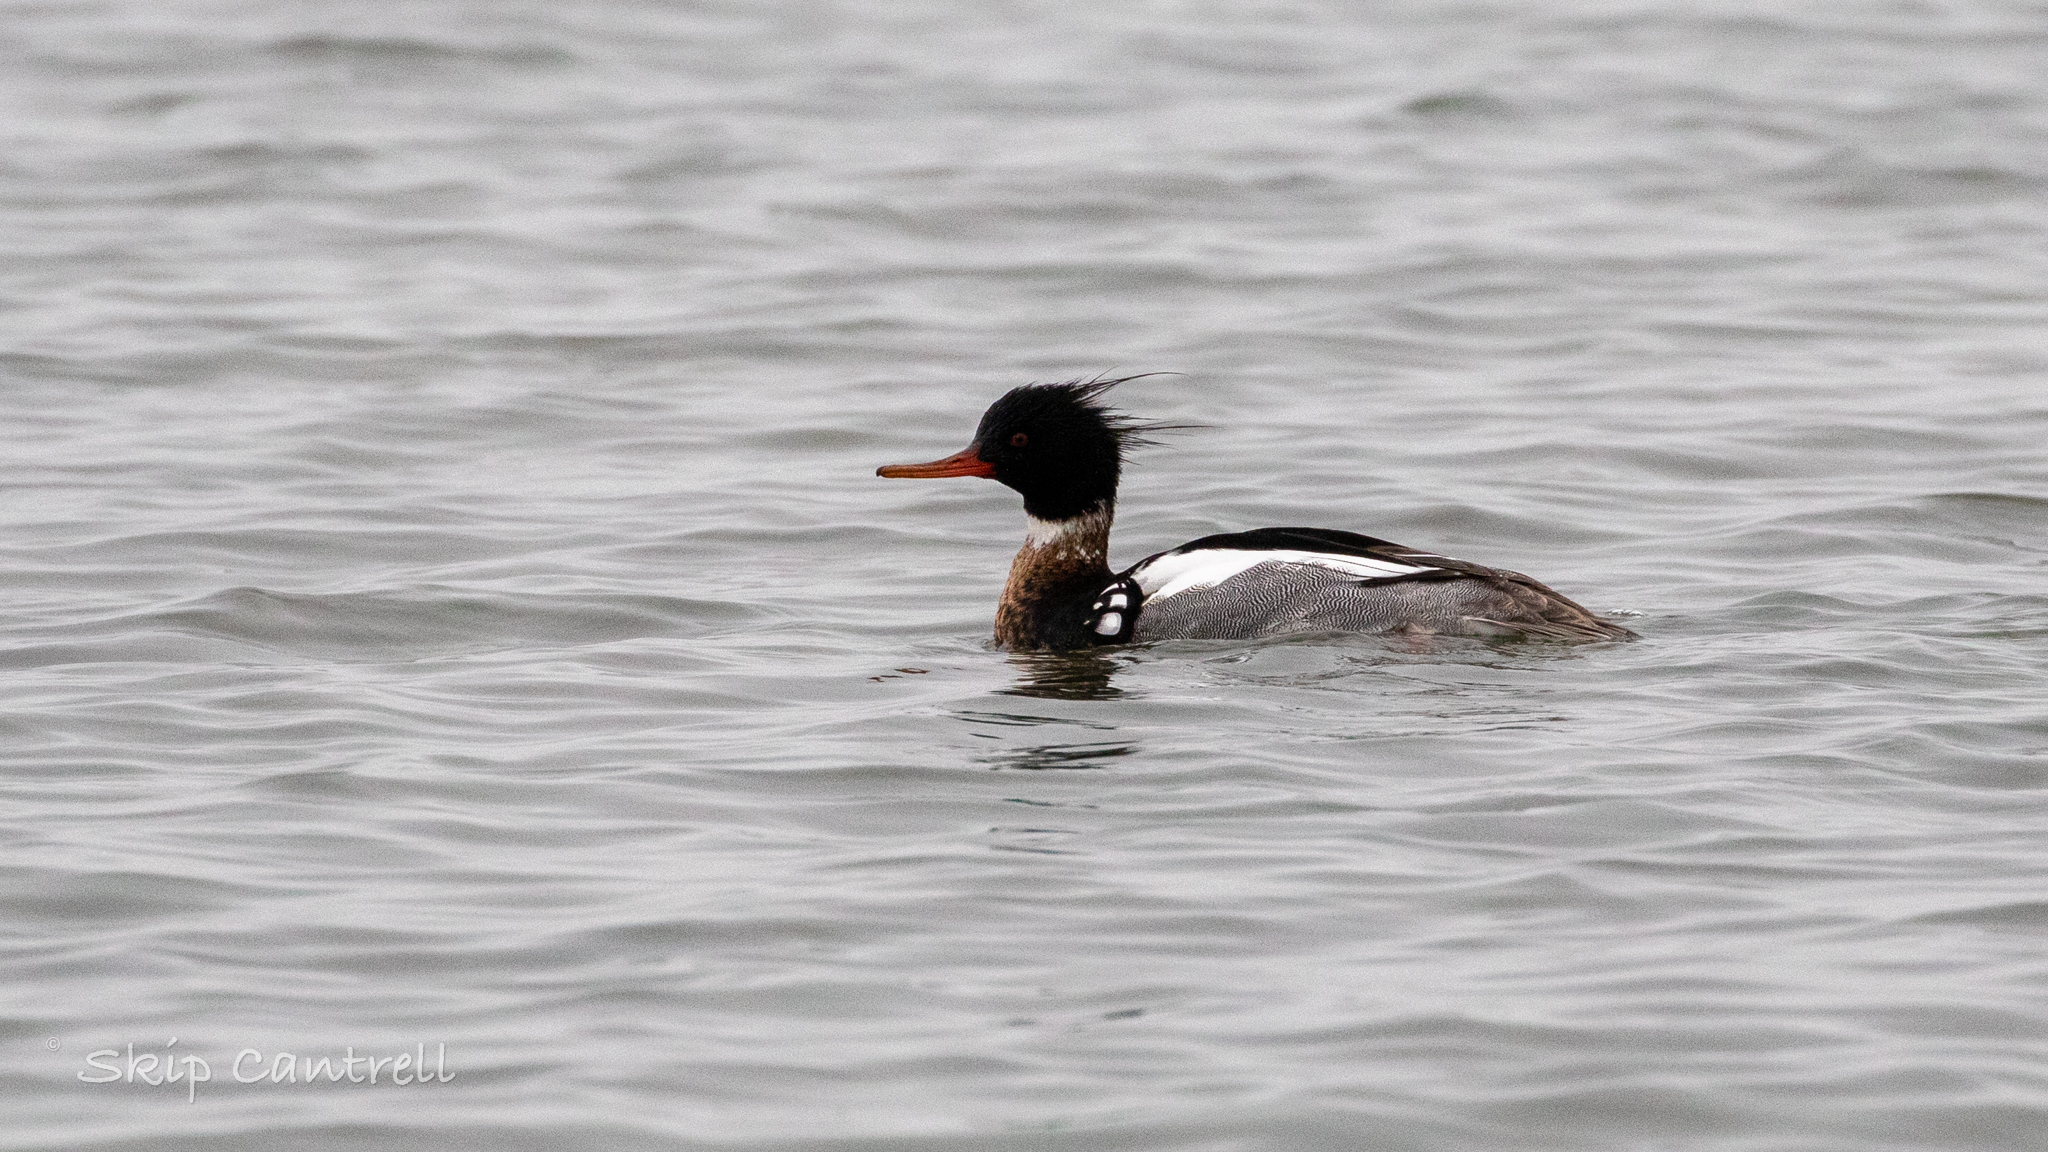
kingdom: Animalia
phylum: Chordata
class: Aves
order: Anseriformes
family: Anatidae
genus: Mergus
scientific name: Mergus serrator
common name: Red-breasted merganser
